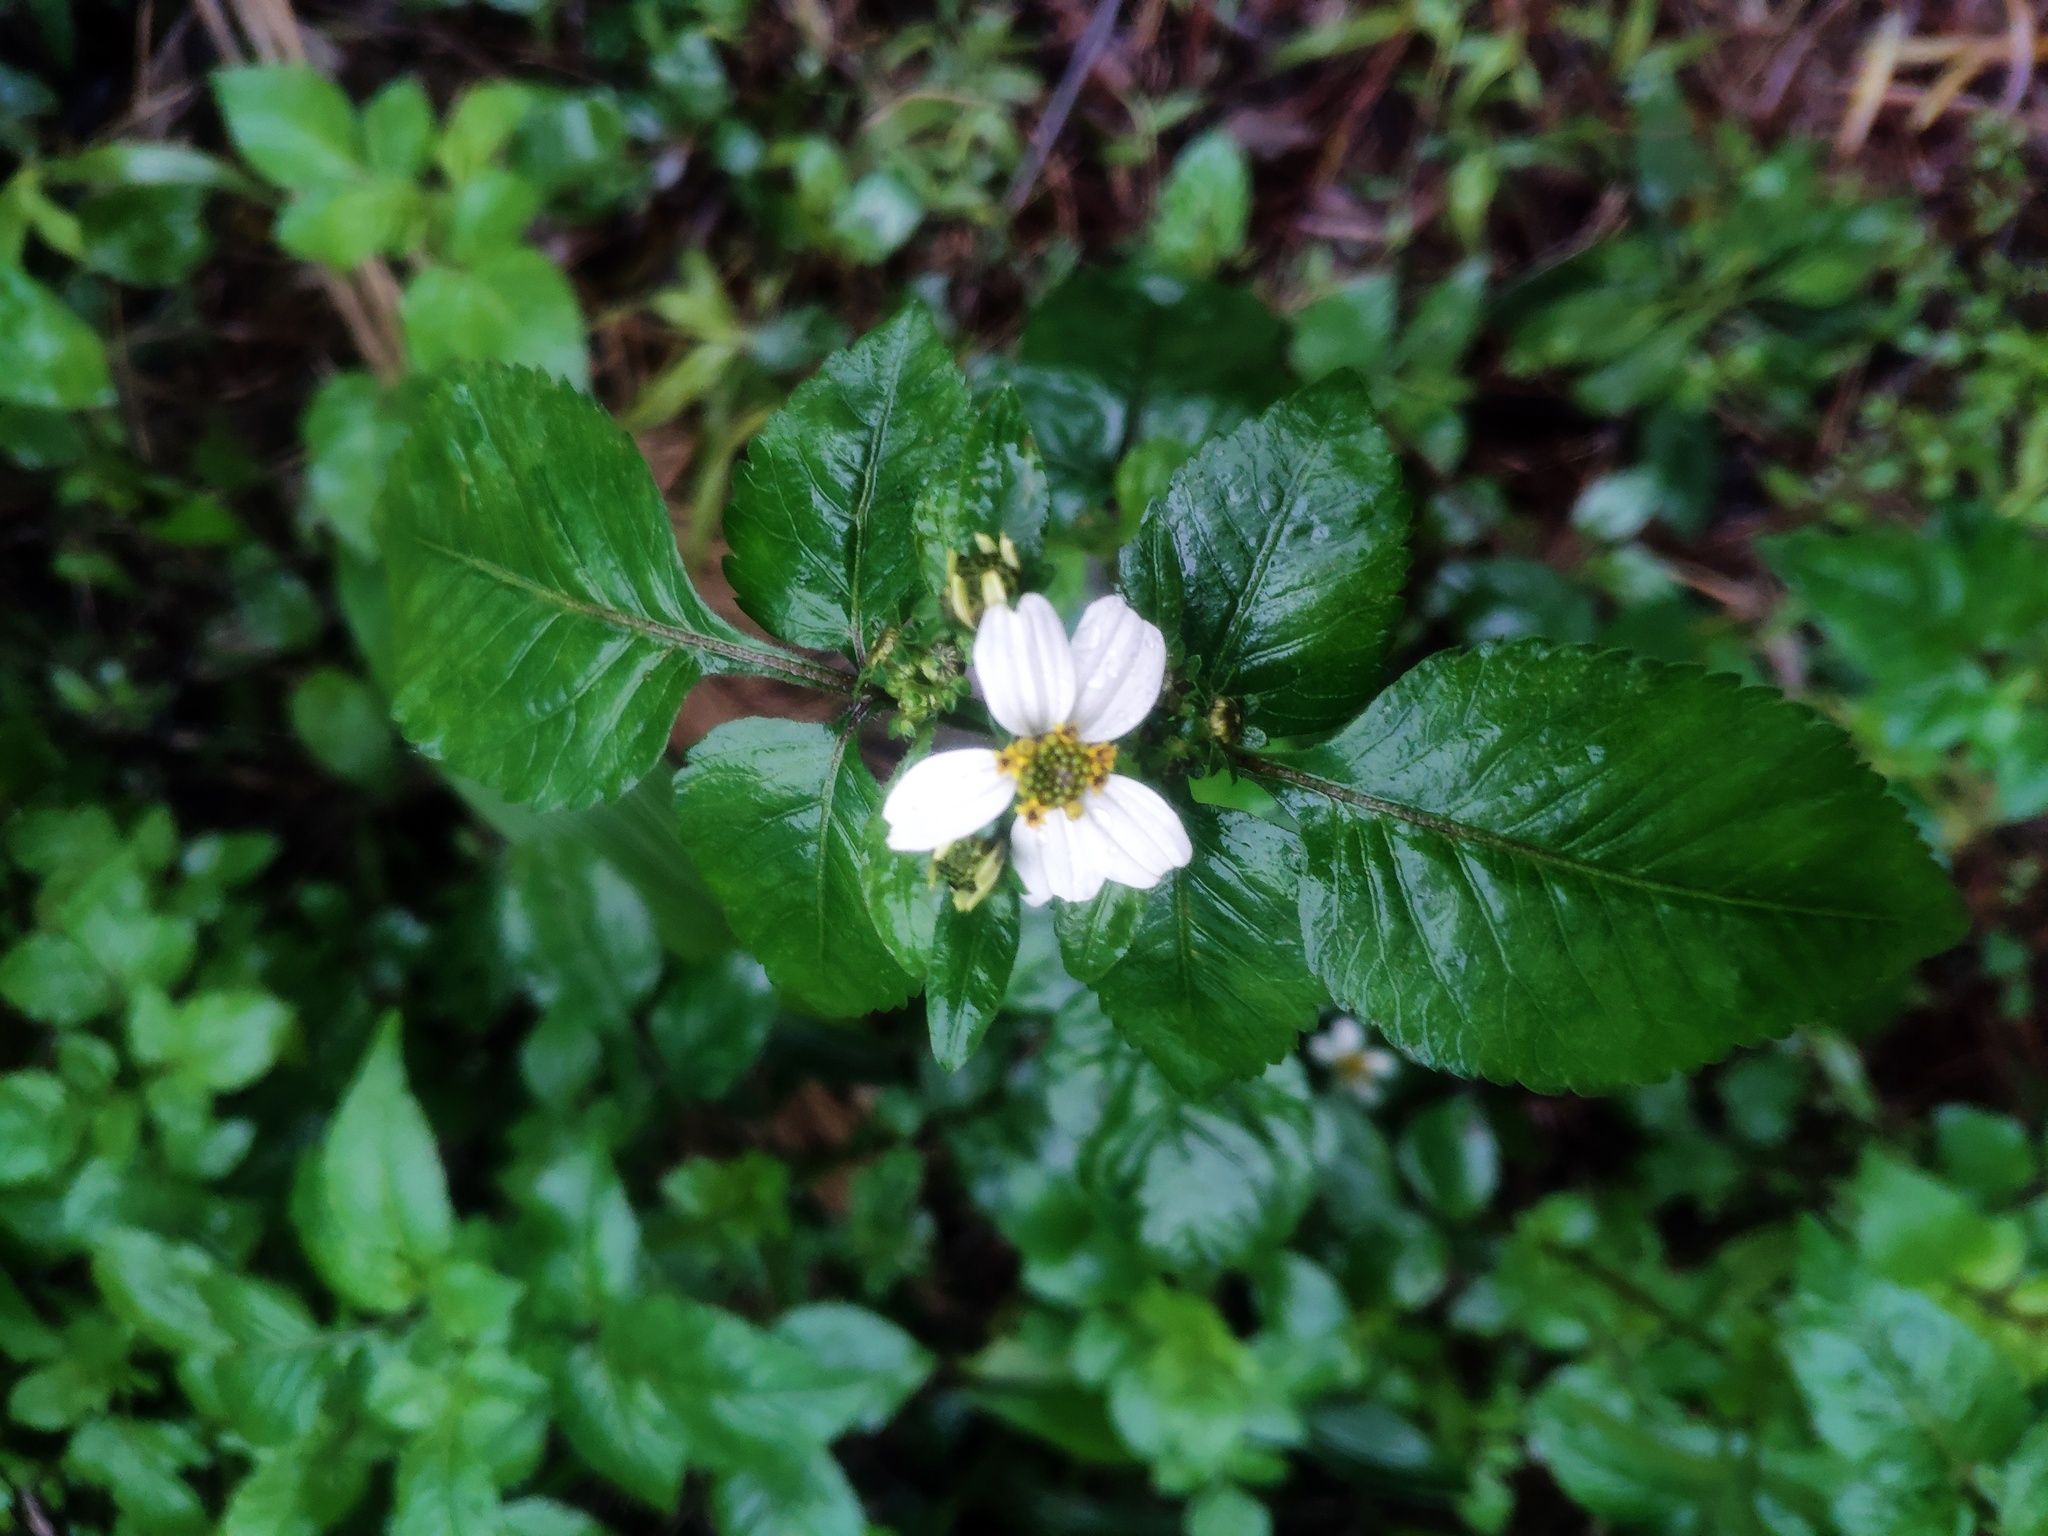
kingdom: Plantae
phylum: Tracheophyta
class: Magnoliopsida
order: Asterales
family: Asteraceae
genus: Bidens
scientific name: Bidens alba
